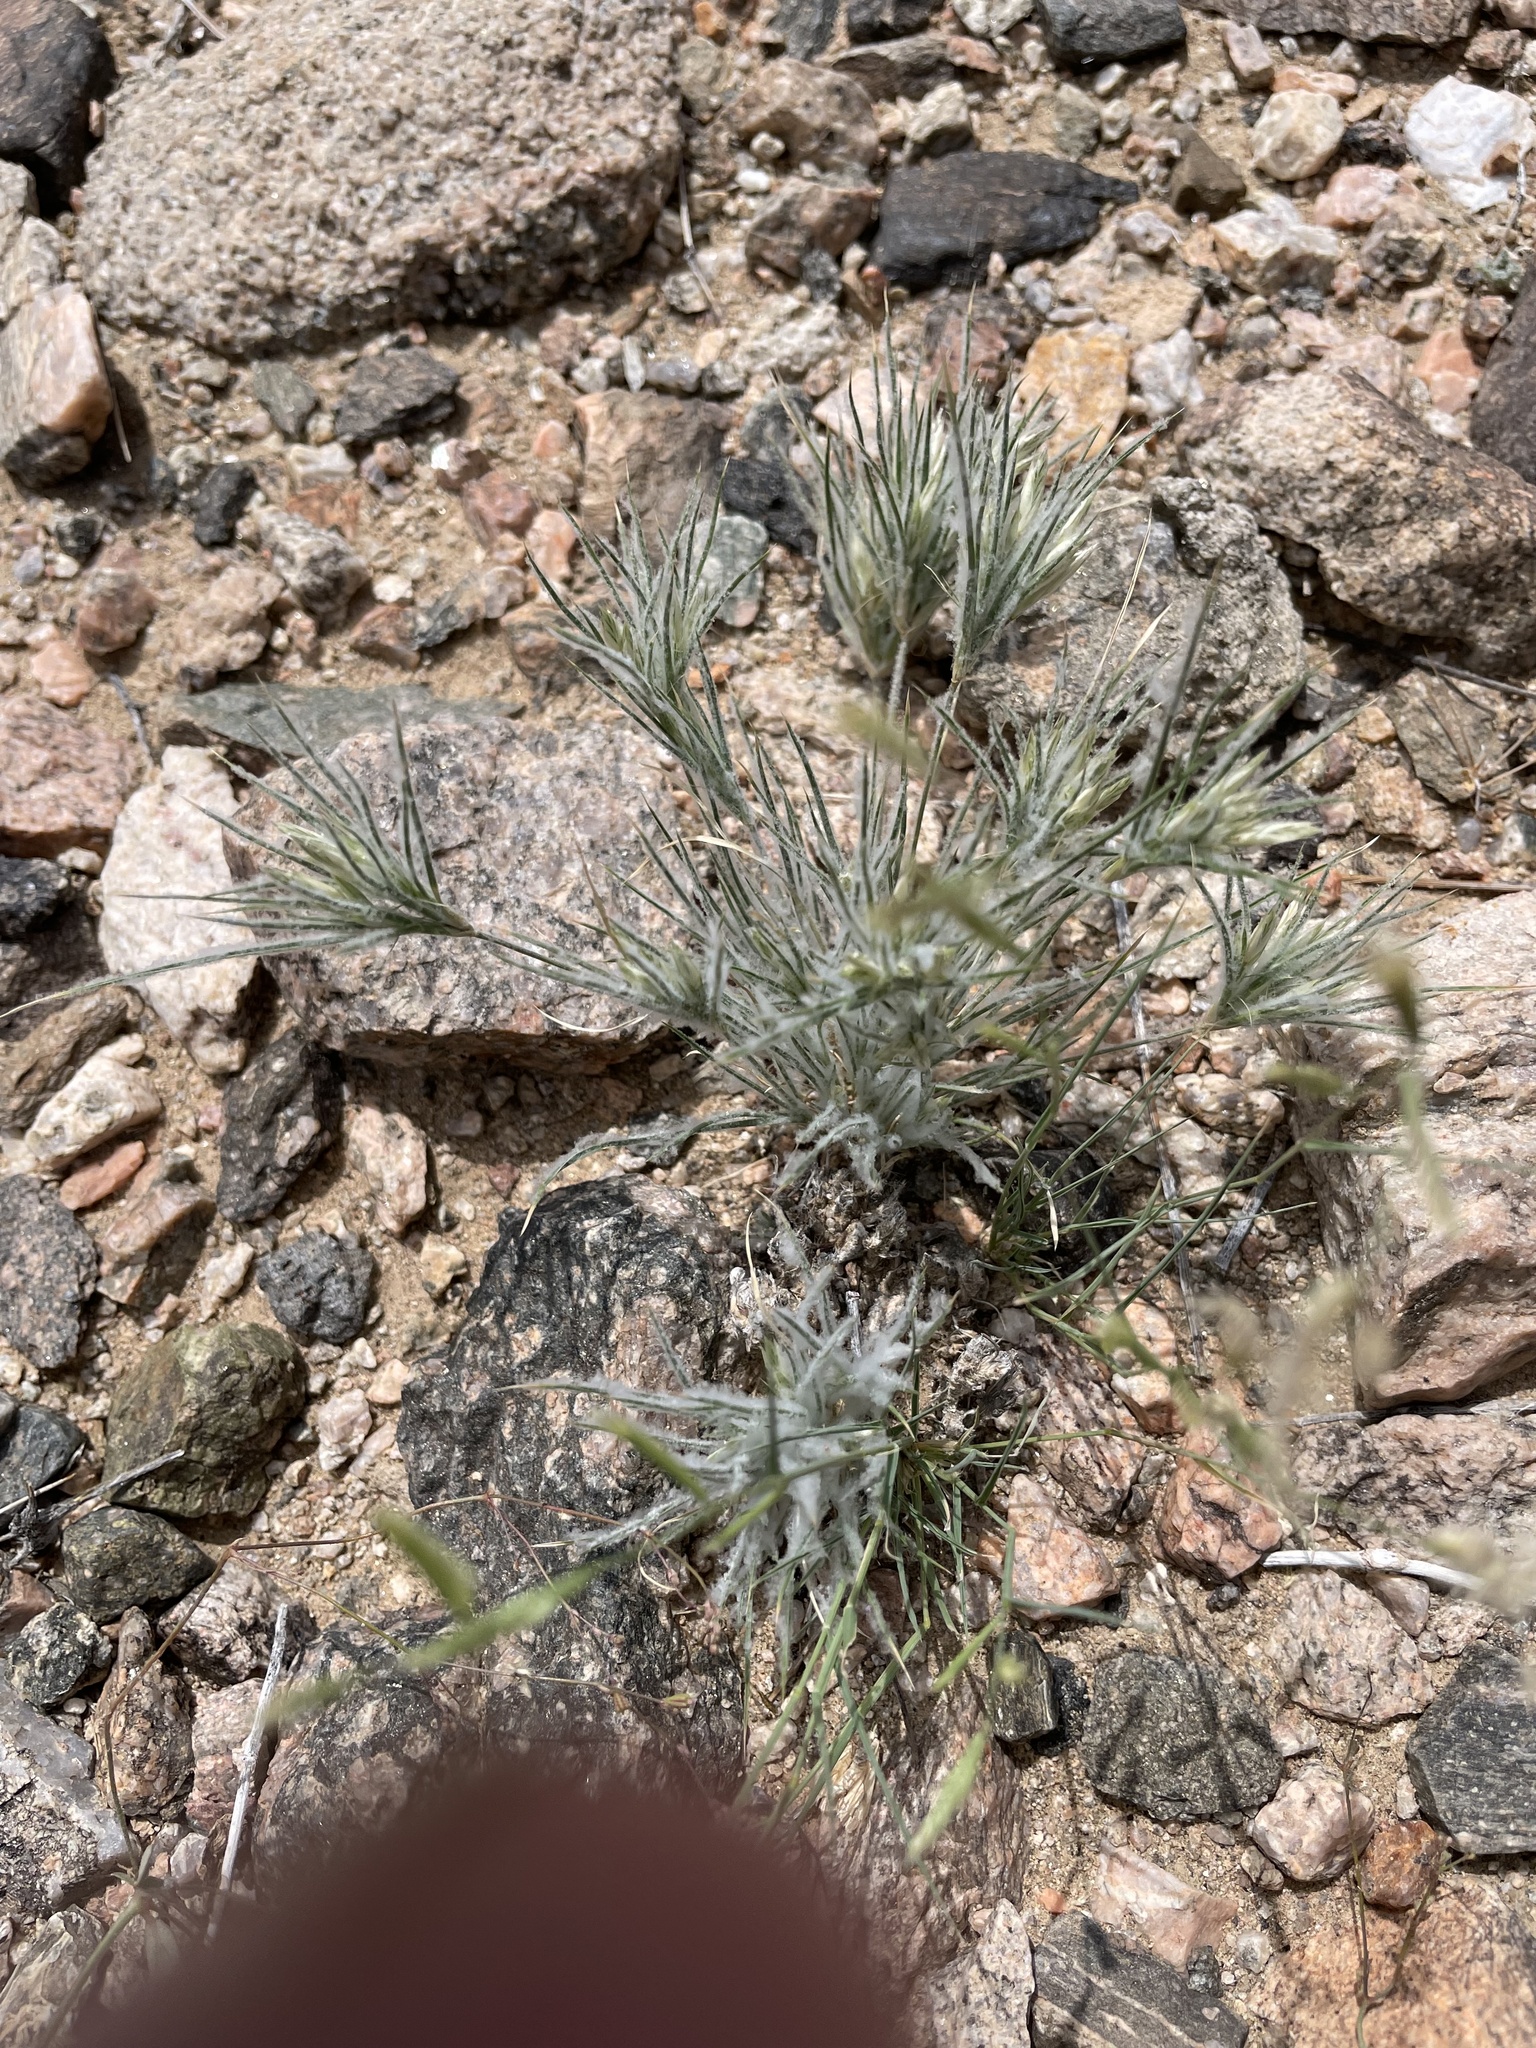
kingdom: Plantae
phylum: Tracheophyta
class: Liliopsida
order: Poales
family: Poaceae
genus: Dasyochloa
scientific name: Dasyochloa pulchella
